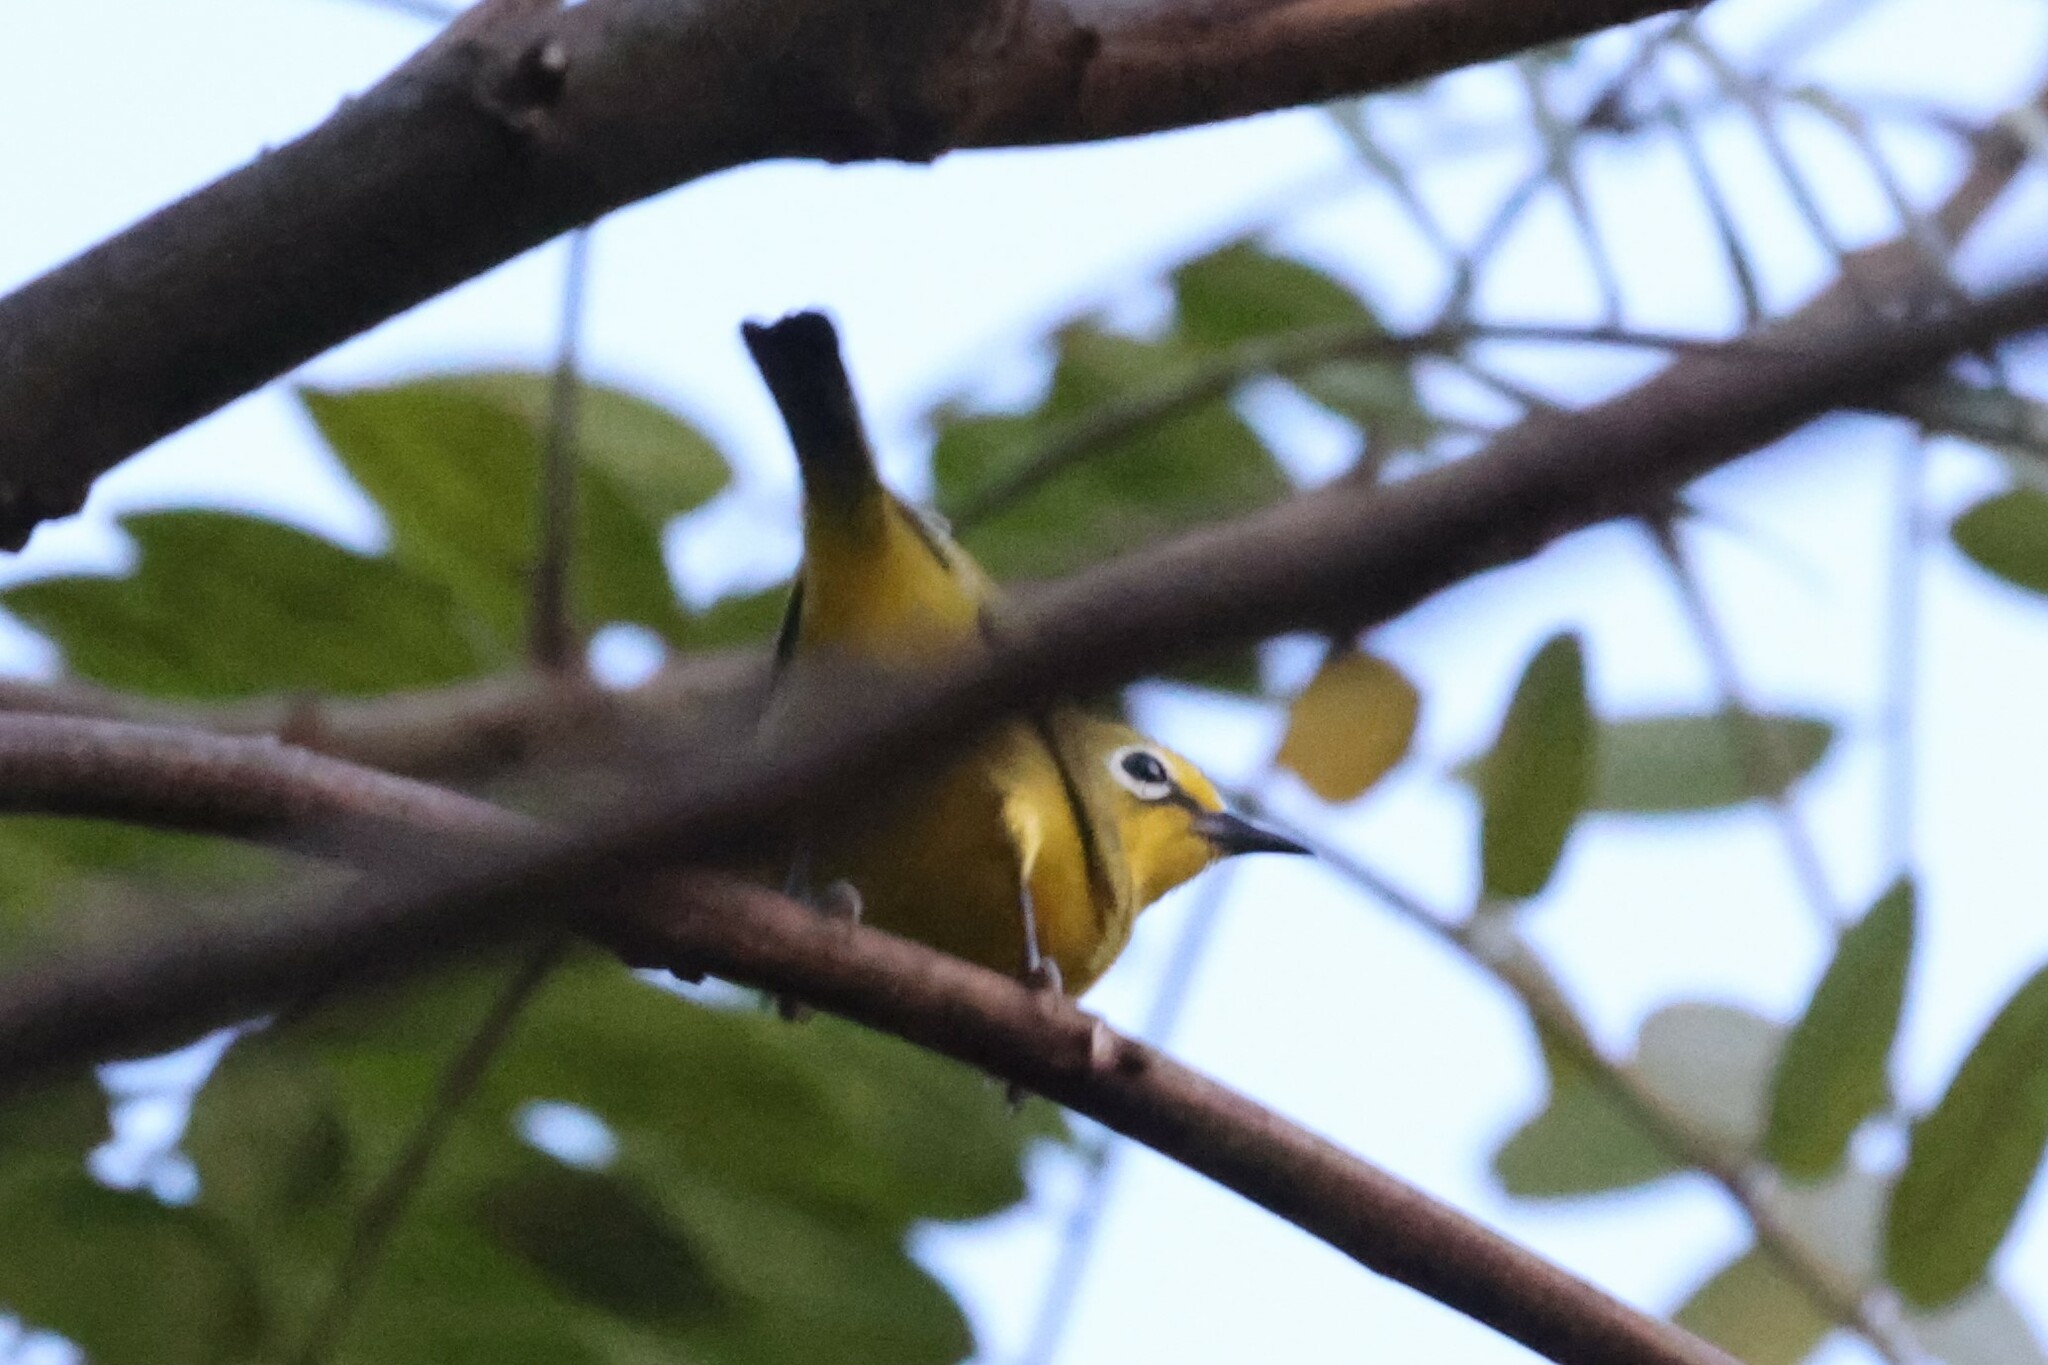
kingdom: Animalia
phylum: Chordata
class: Aves
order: Passeriformes
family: Zosteropidae
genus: Zosterops
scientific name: Zosterops senegalensis
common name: African yellow white-eye
